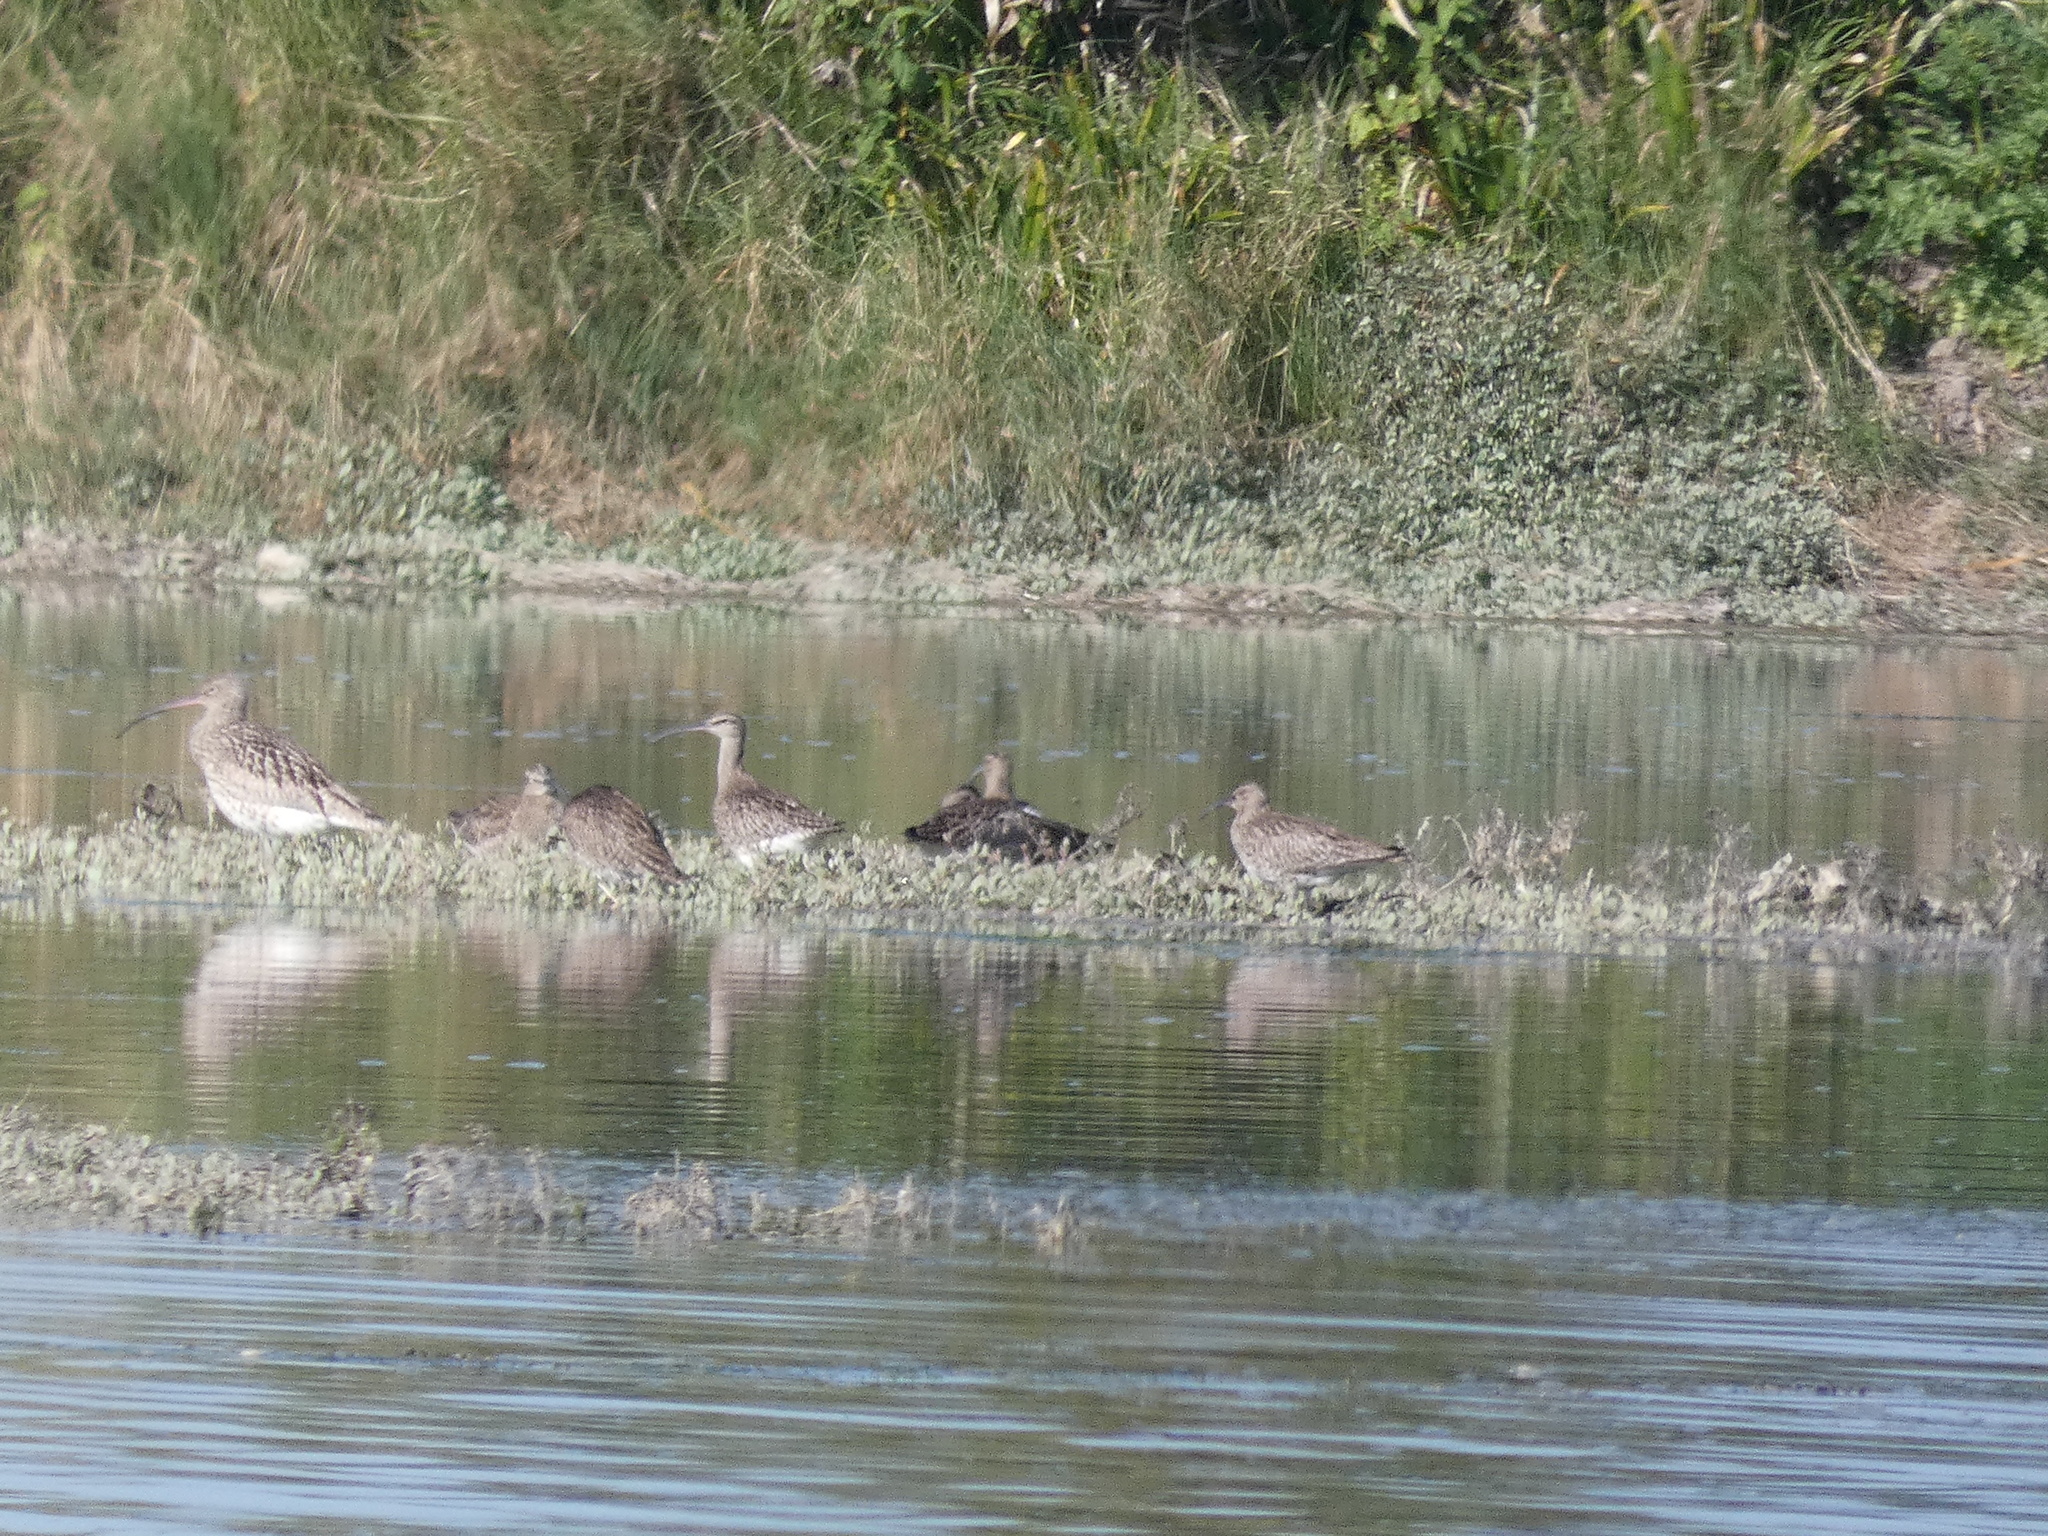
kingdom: Animalia
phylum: Chordata
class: Aves
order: Charadriiformes
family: Scolopacidae
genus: Numenius
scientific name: Numenius arquata
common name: Eurasian curlew
